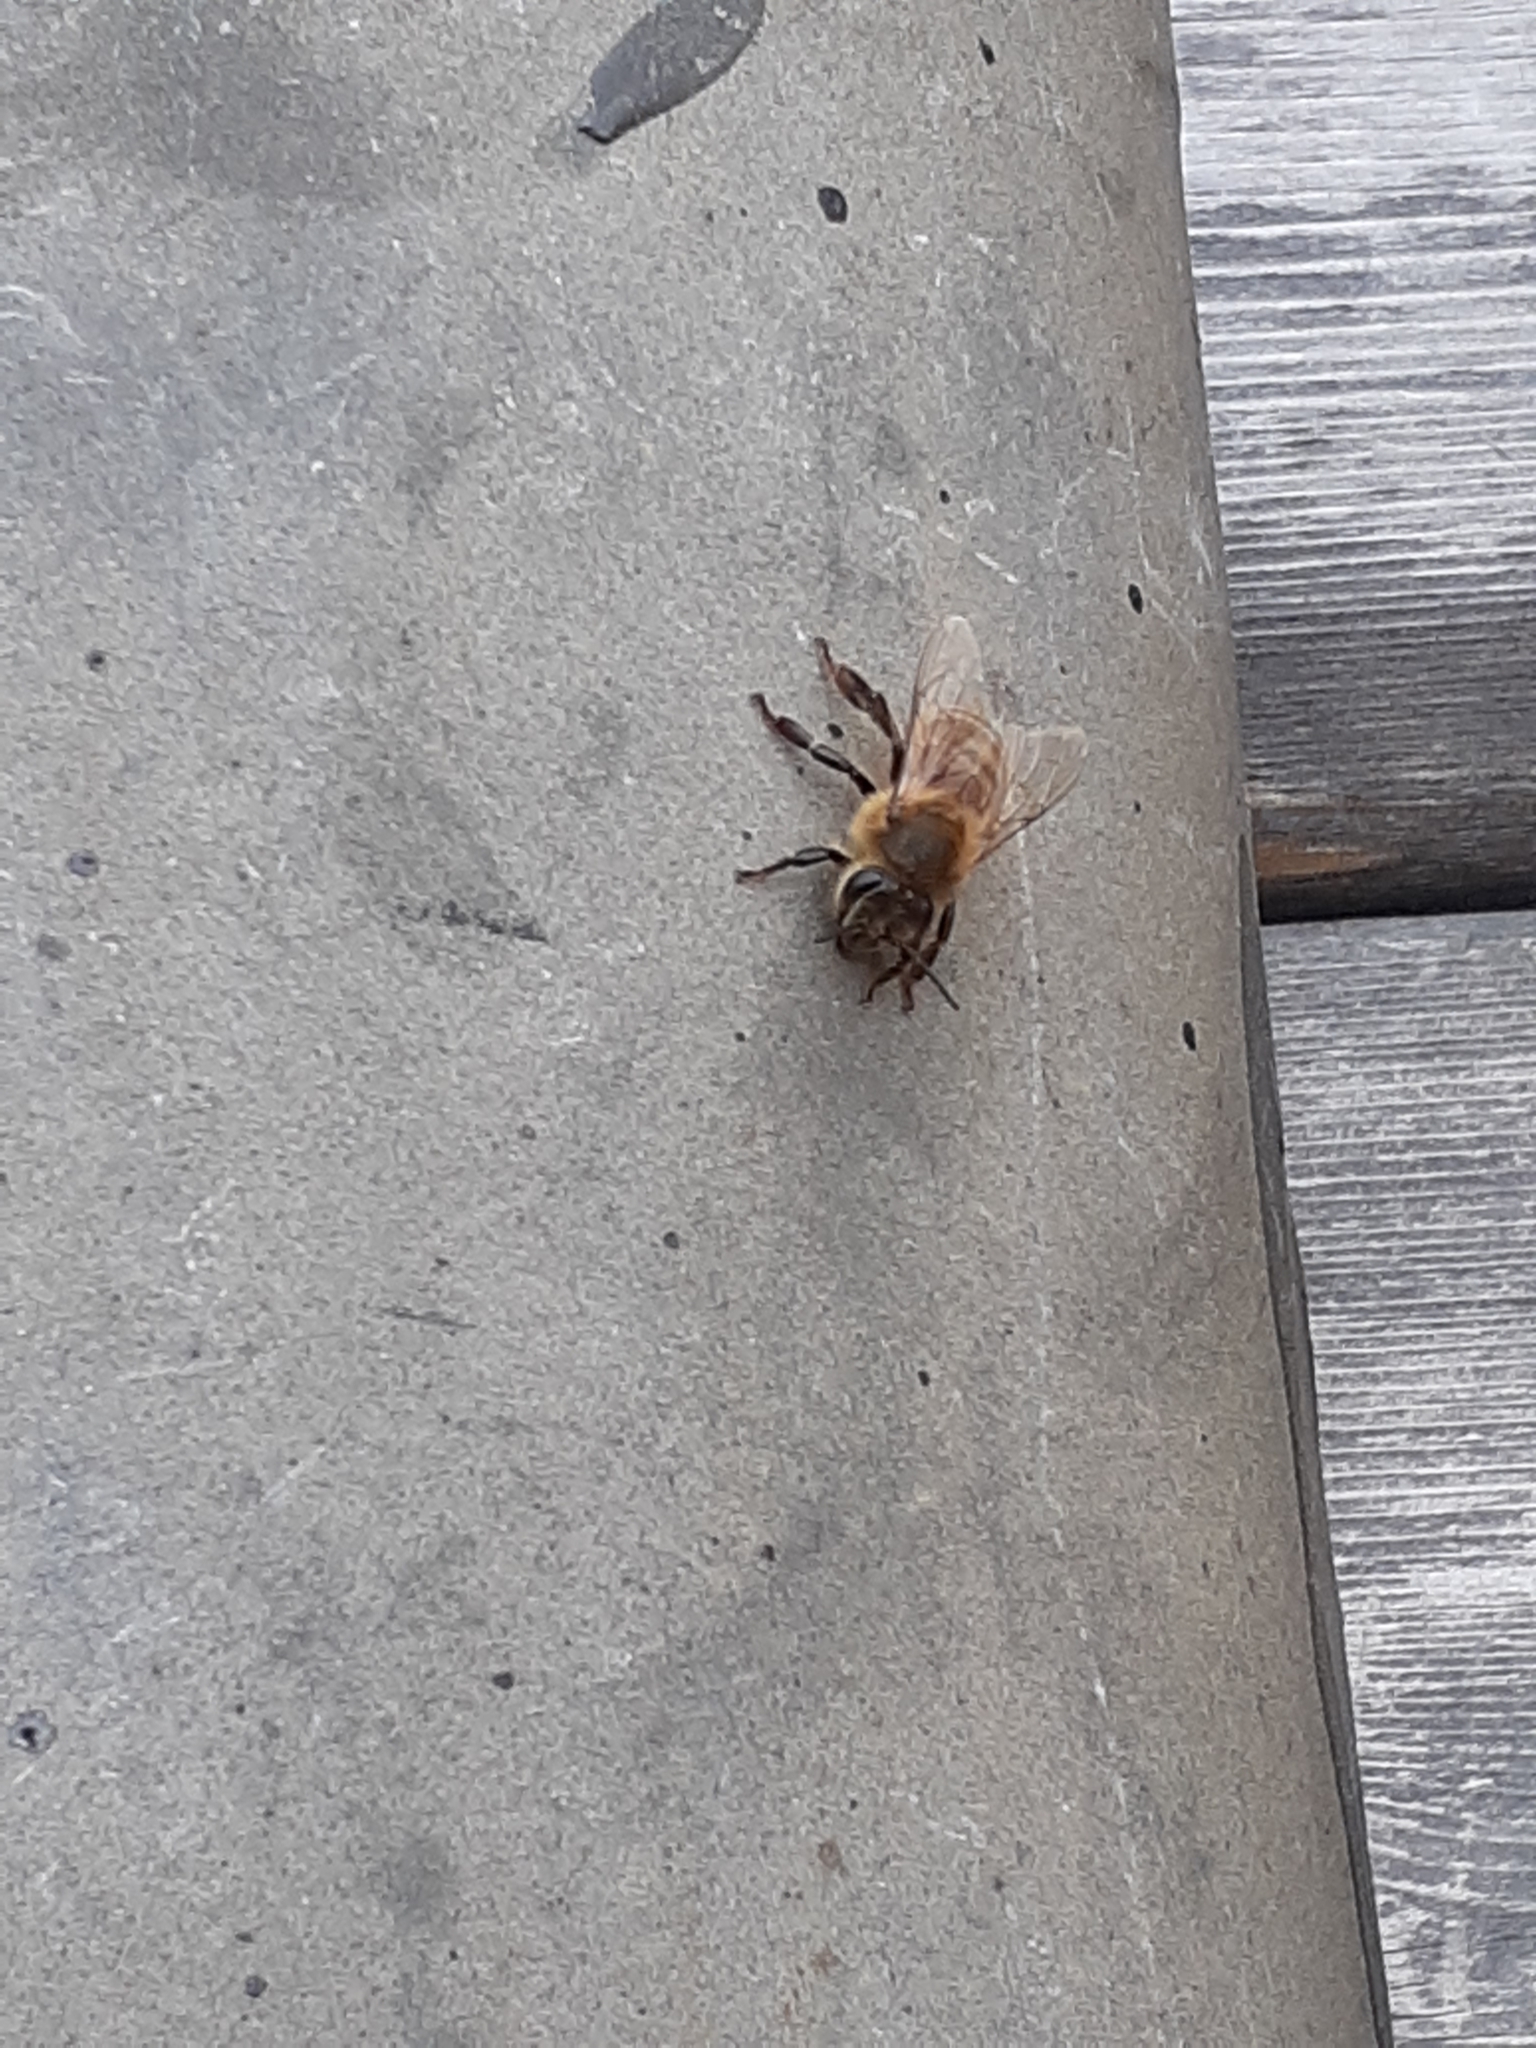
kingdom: Animalia
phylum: Arthropoda
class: Insecta
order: Hymenoptera
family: Apidae
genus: Apis
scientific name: Apis mellifera
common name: Honey bee
